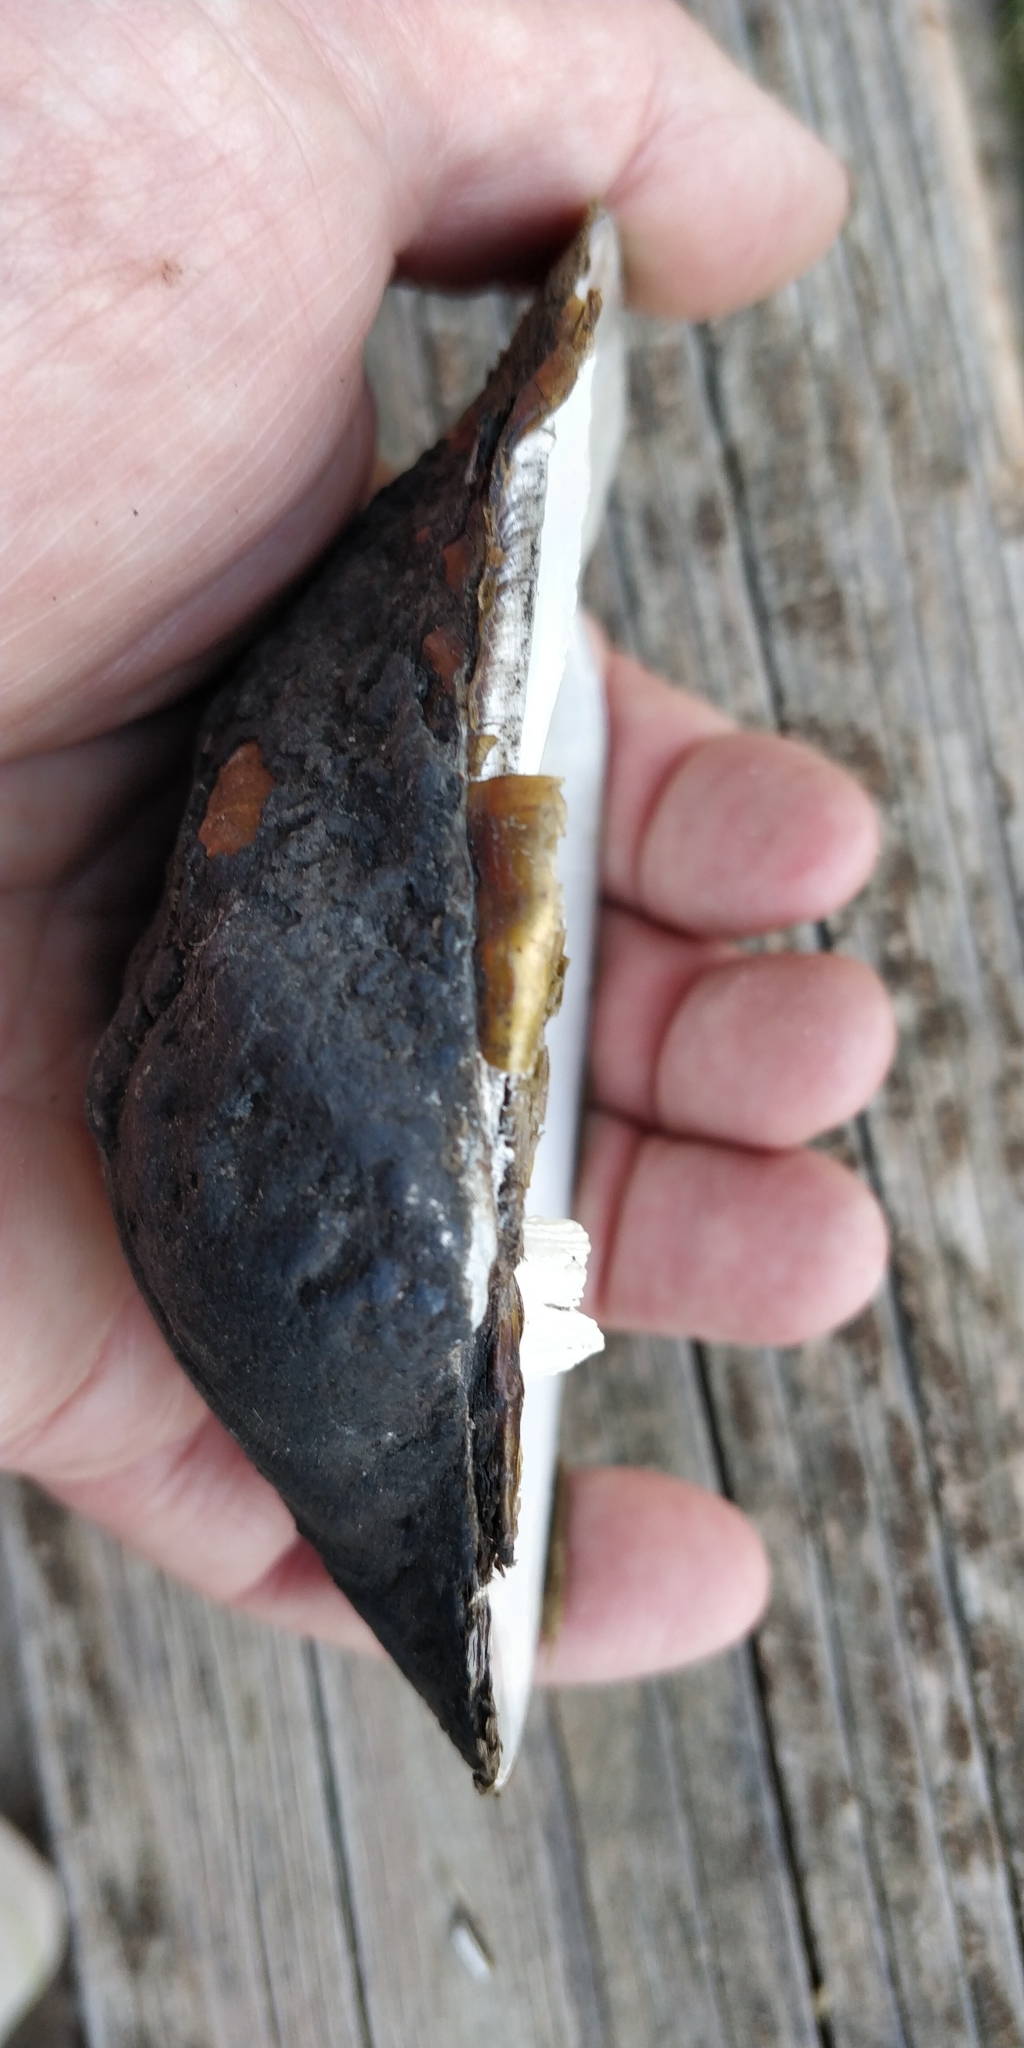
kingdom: Animalia
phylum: Mollusca
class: Bivalvia
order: Unionida
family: Unionidae
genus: Quadrula
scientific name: Quadrula quadrula
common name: Mapleleaf
